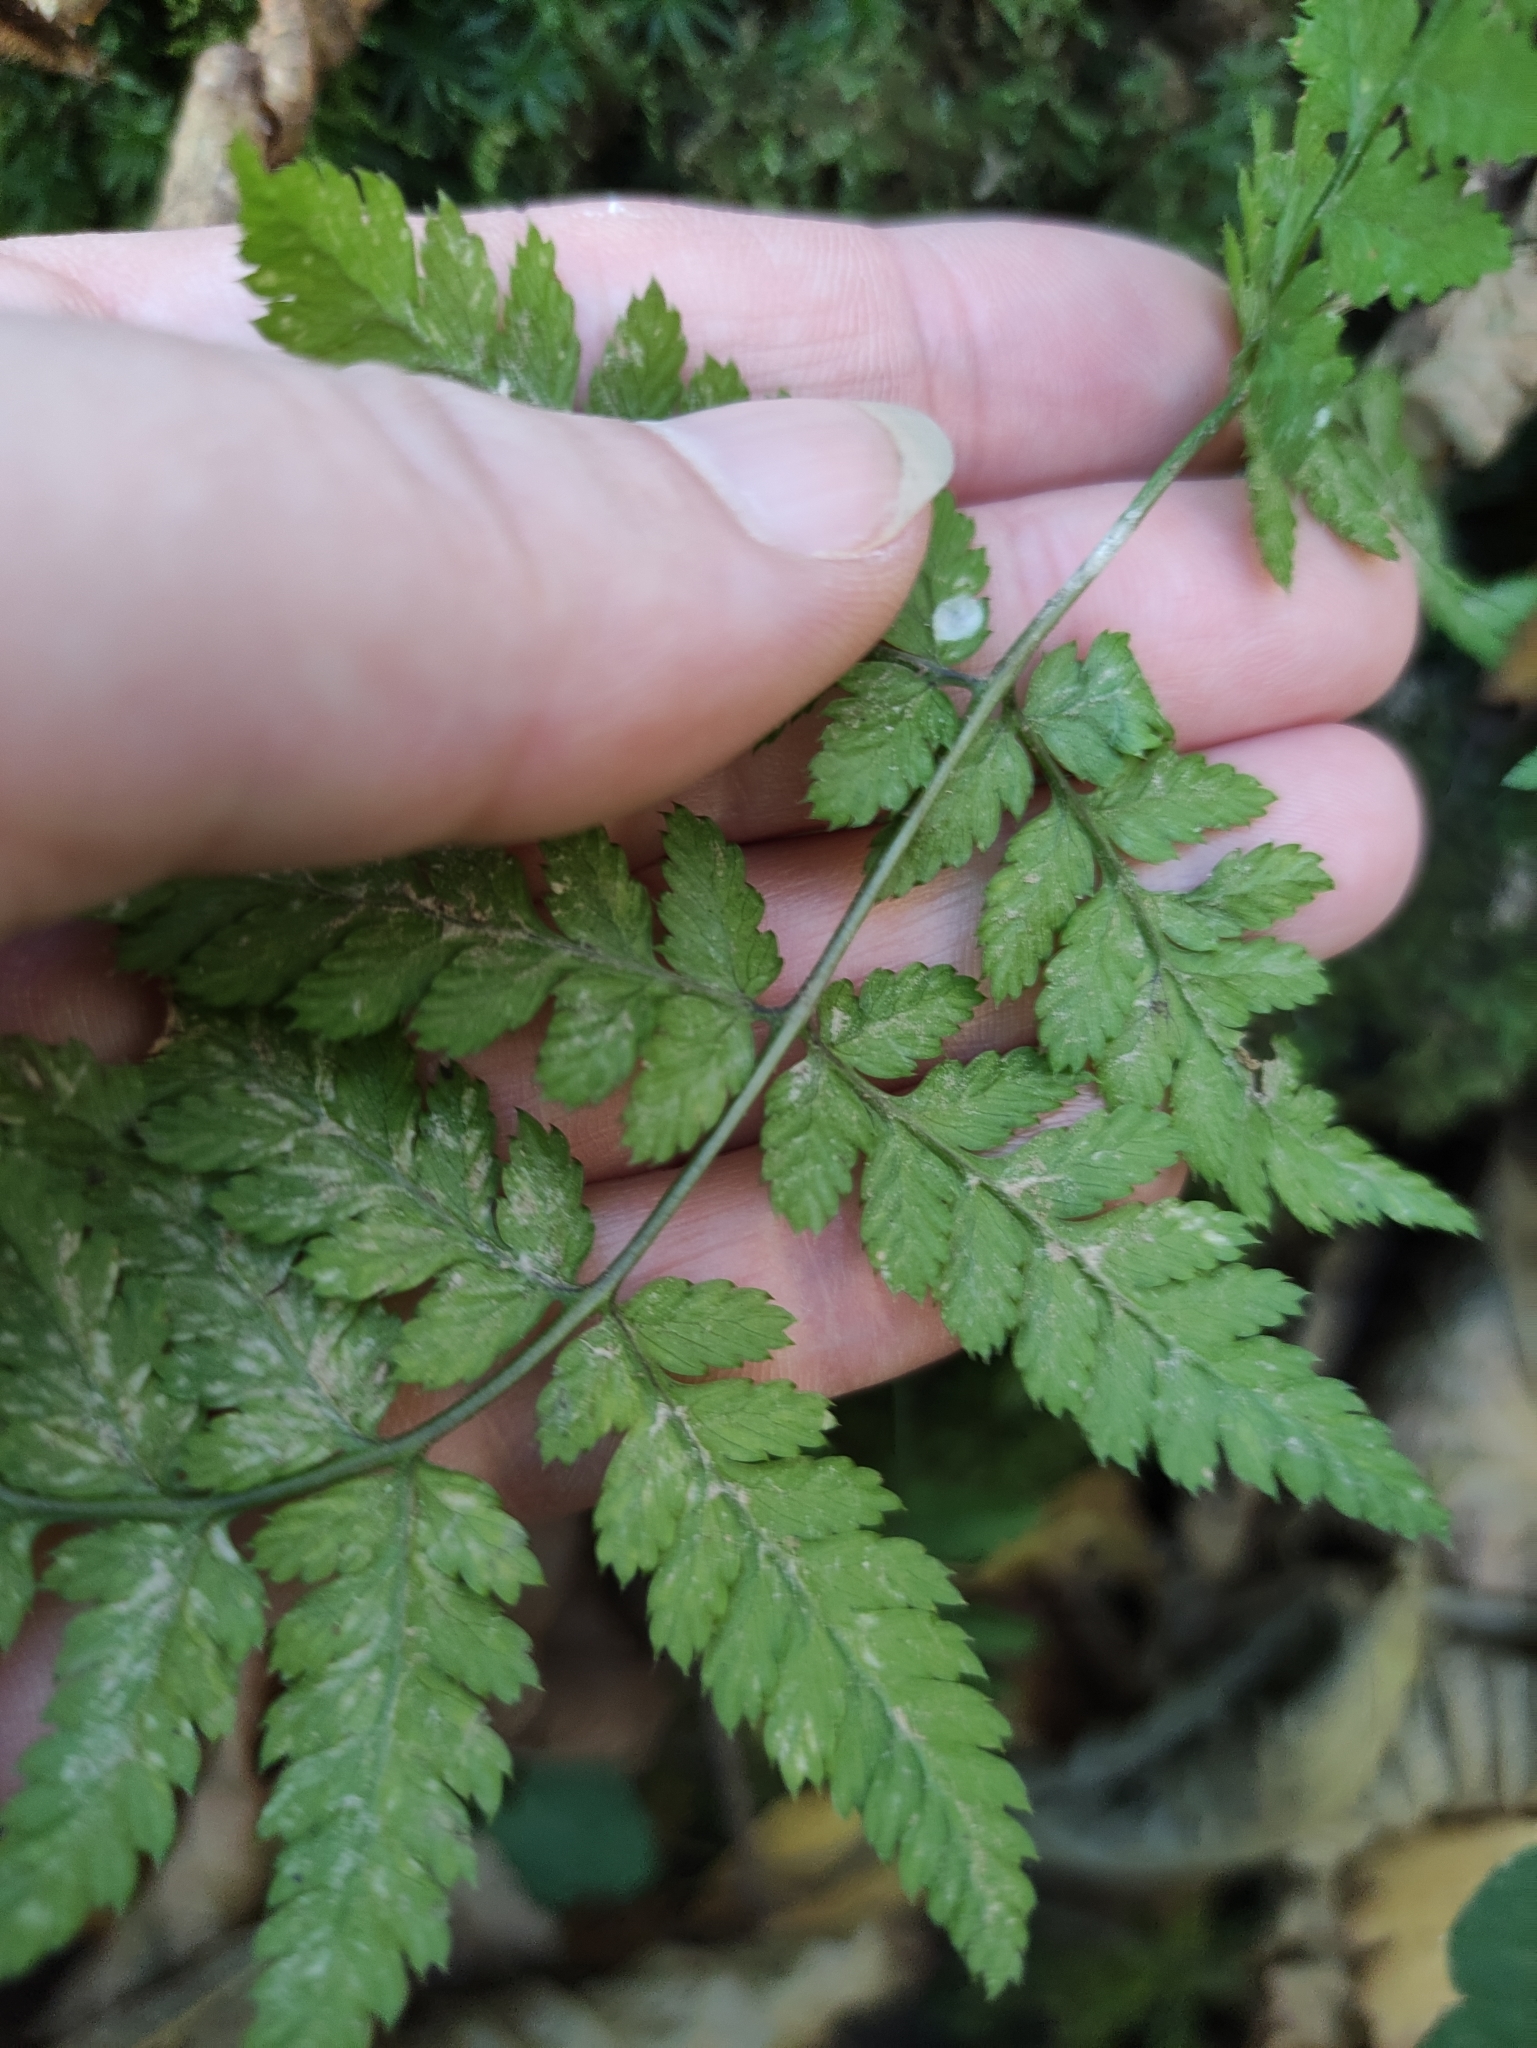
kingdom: Plantae
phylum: Tracheophyta
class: Polypodiopsida
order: Polypodiales
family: Dryopteridaceae
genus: Dryopteris
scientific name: Dryopteris carthusiana
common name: Narrow buckler-fern
